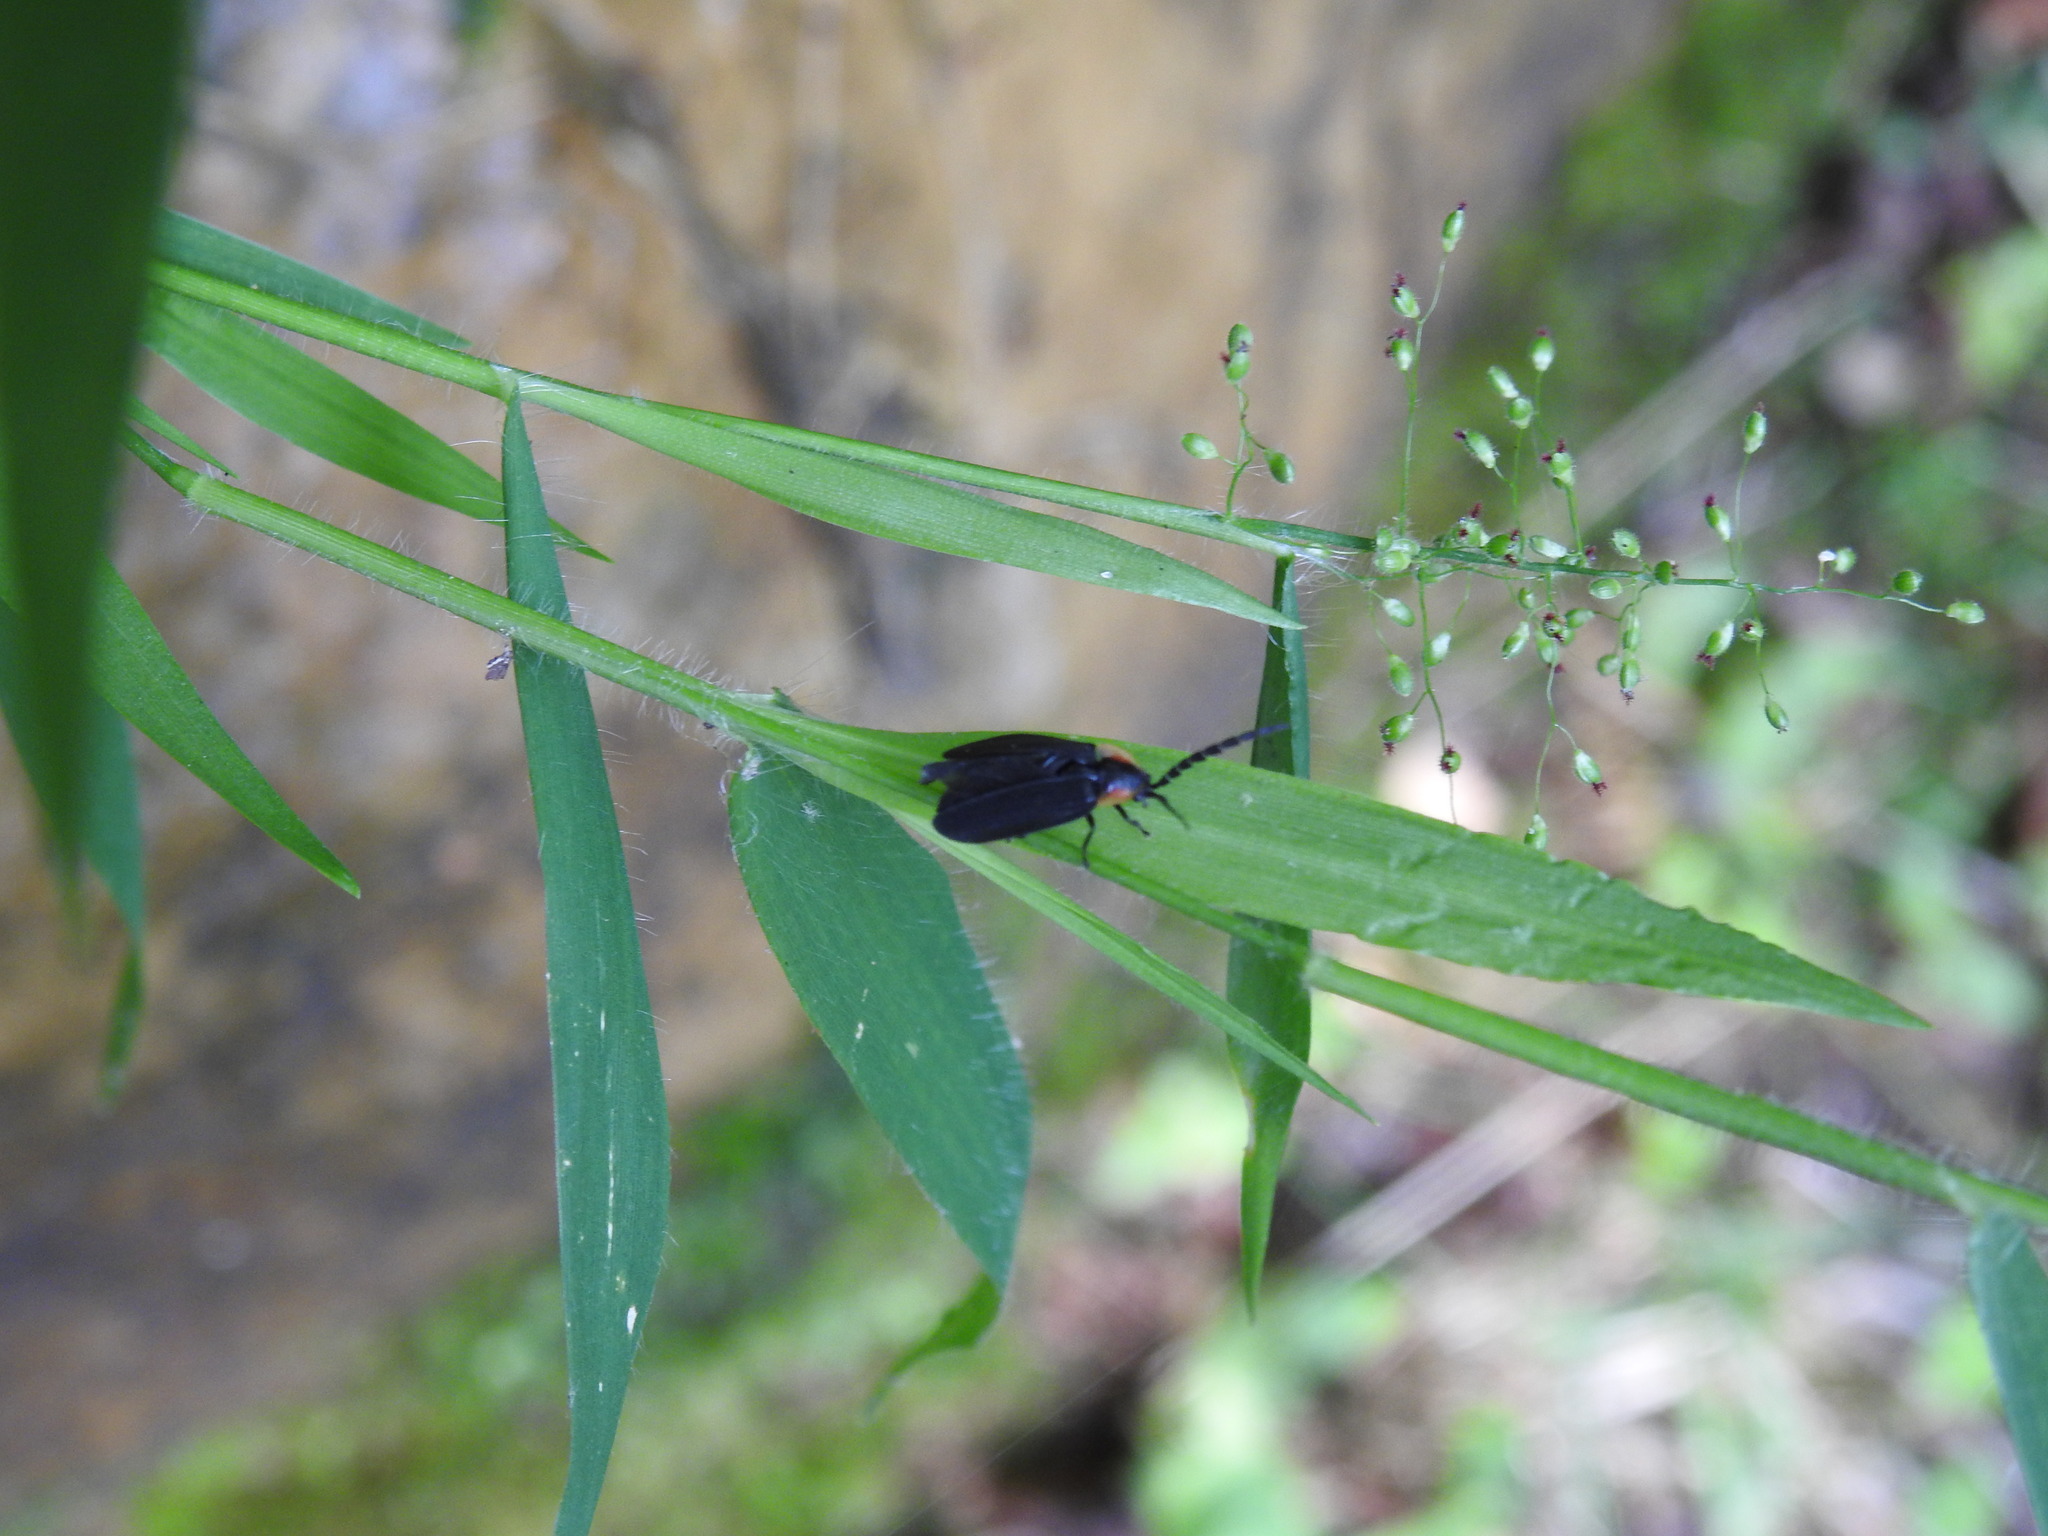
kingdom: Animalia
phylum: Arthropoda
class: Insecta
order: Coleoptera
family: Lampyridae
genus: Lucidota
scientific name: Lucidota atra
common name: Black firefly
